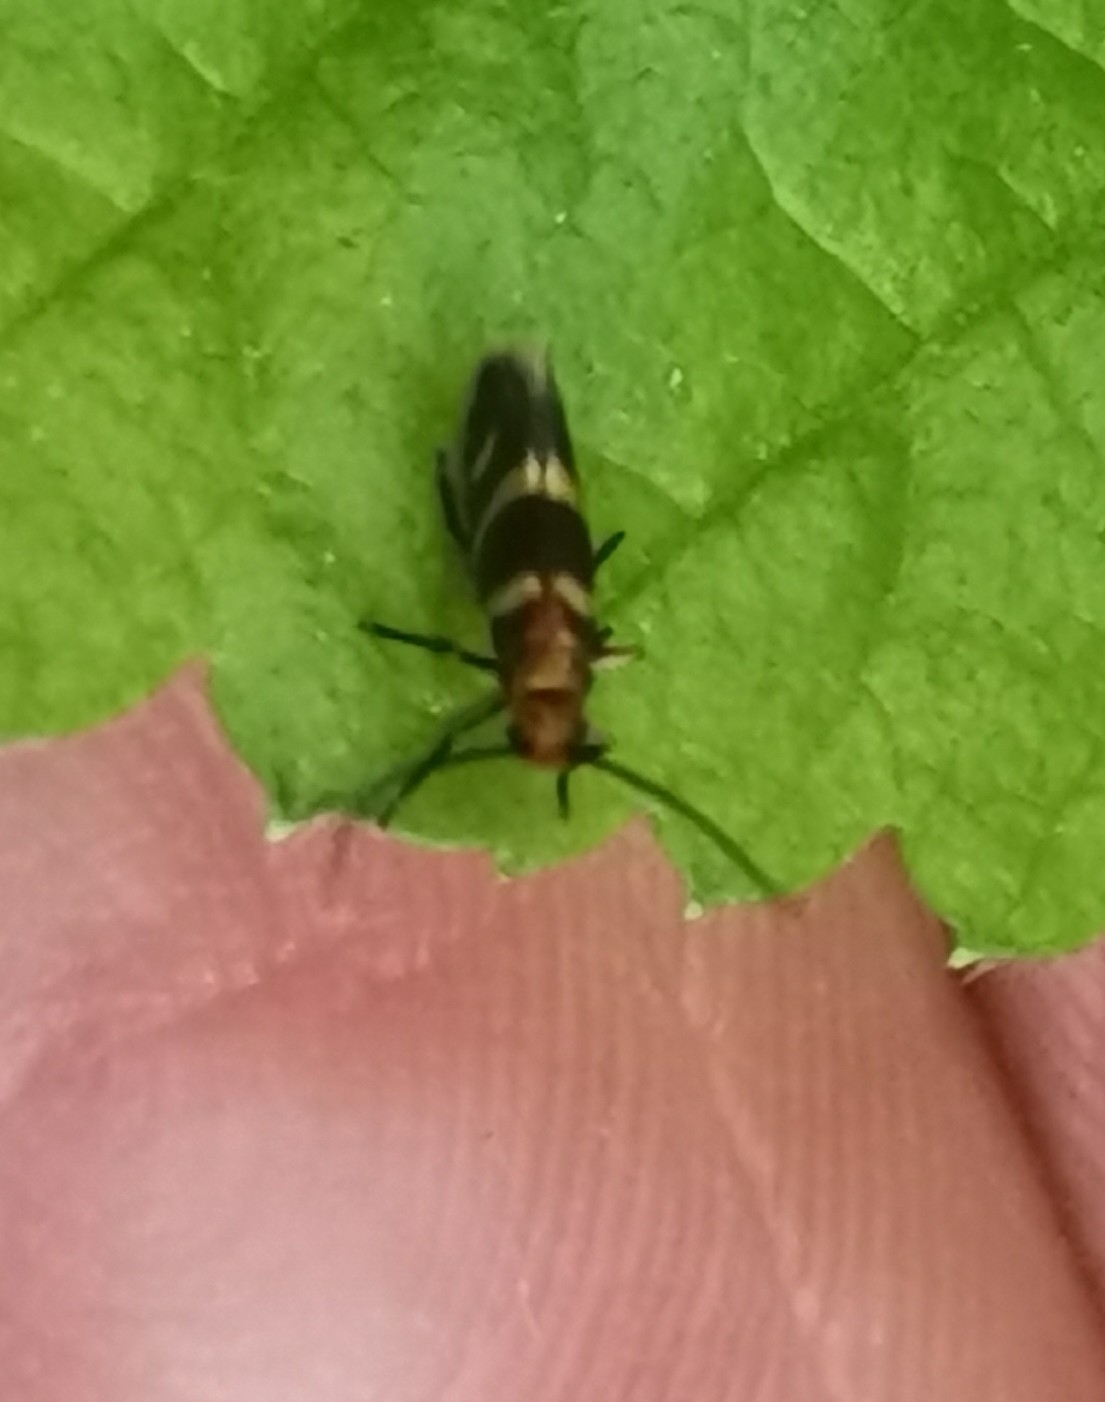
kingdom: Animalia
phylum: Arthropoda
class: Insecta
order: Lepidoptera
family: Micropterigidae
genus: Micropterix
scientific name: Micropterix aureatella
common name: Yellow-barred gold
